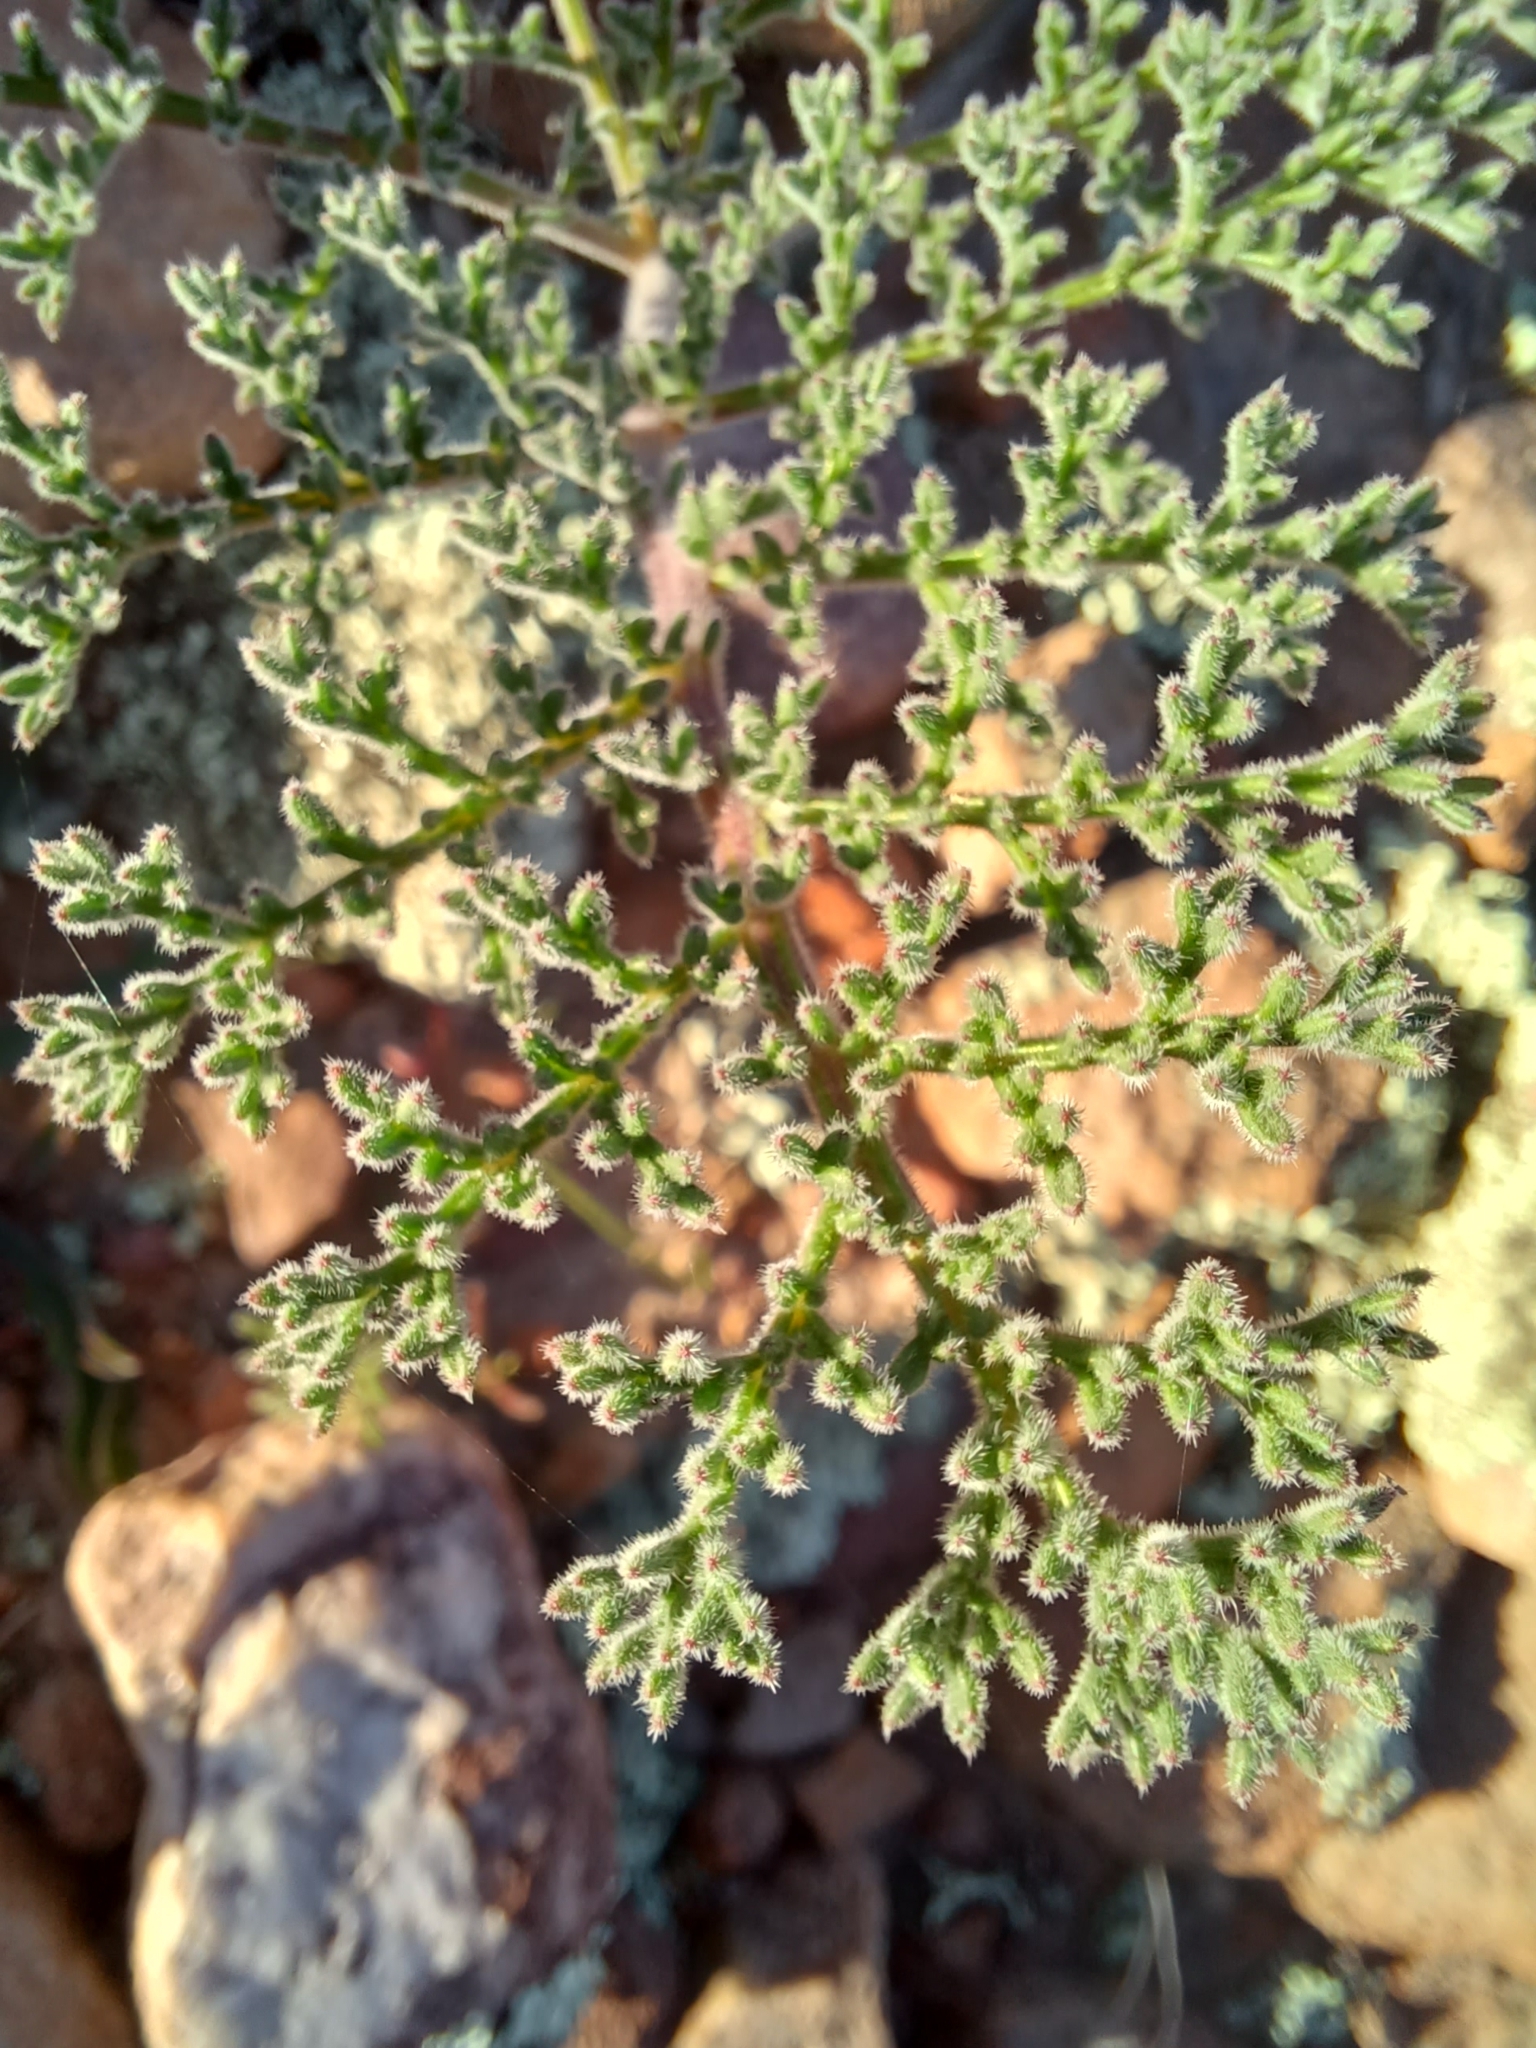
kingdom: Plantae
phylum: Tracheophyta
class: Magnoliopsida
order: Geraniales
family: Geraniaceae
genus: Pelargonium
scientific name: Pelargonium triste
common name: Night-scent pelargonium
